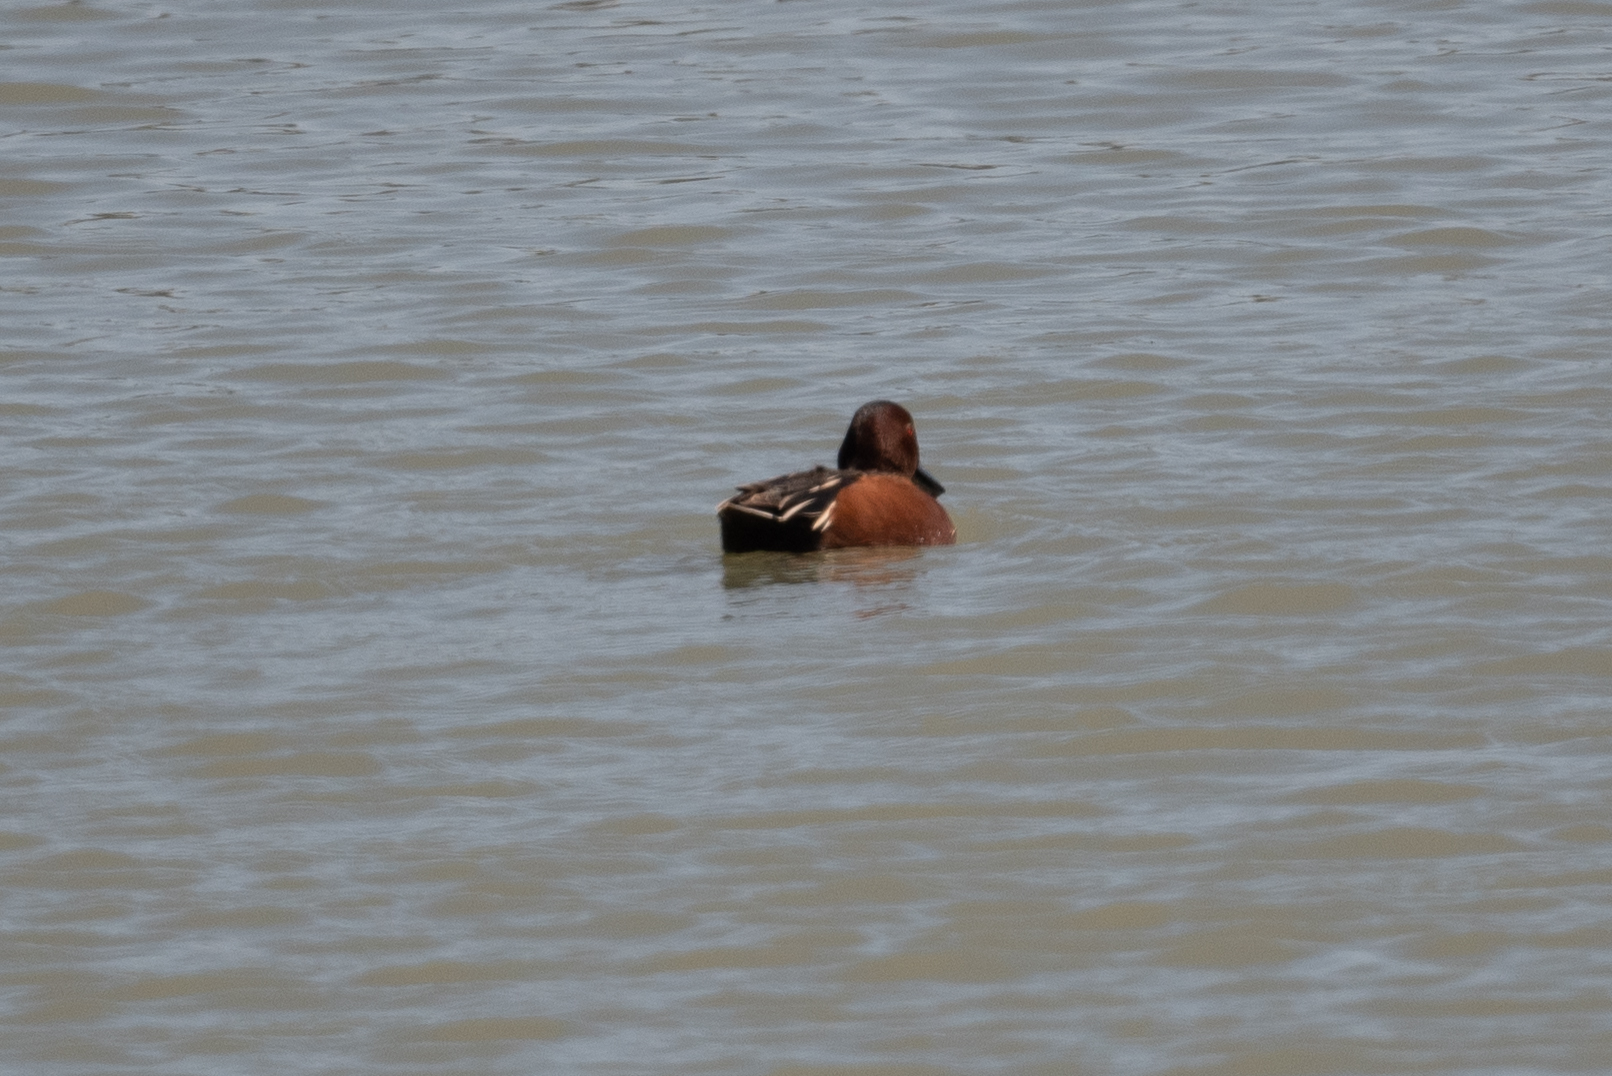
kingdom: Animalia
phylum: Chordata
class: Aves
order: Anseriformes
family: Anatidae
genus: Spatula
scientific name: Spatula cyanoptera
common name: Cinnamon teal
